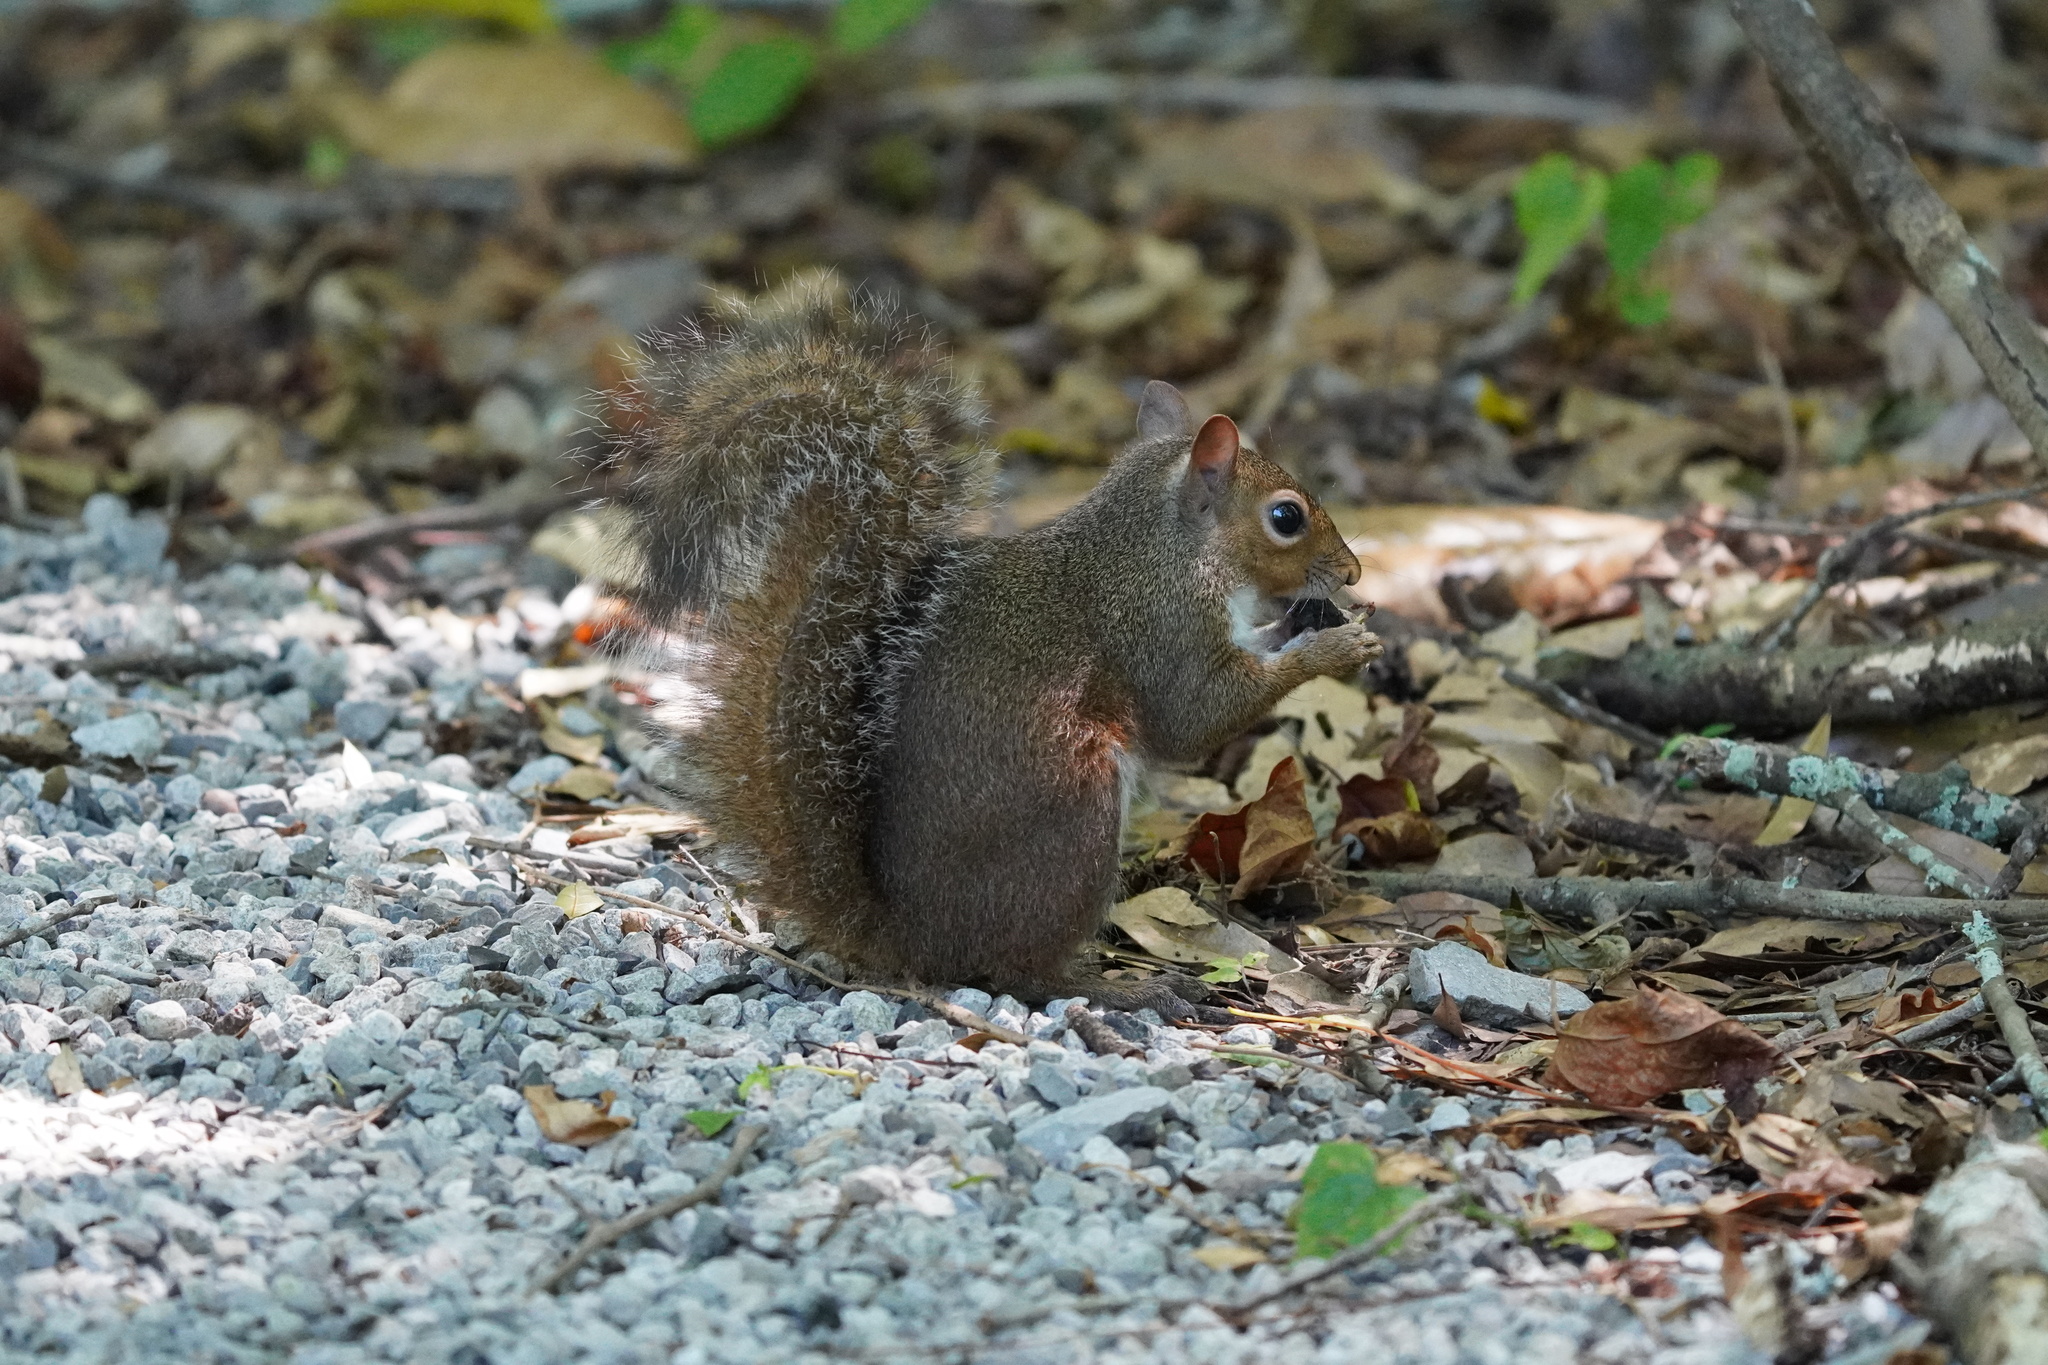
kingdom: Animalia
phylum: Chordata
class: Mammalia
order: Rodentia
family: Sciuridae
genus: Sciurus
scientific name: Sciurus carolinensis
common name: Eastern gray squirrel
